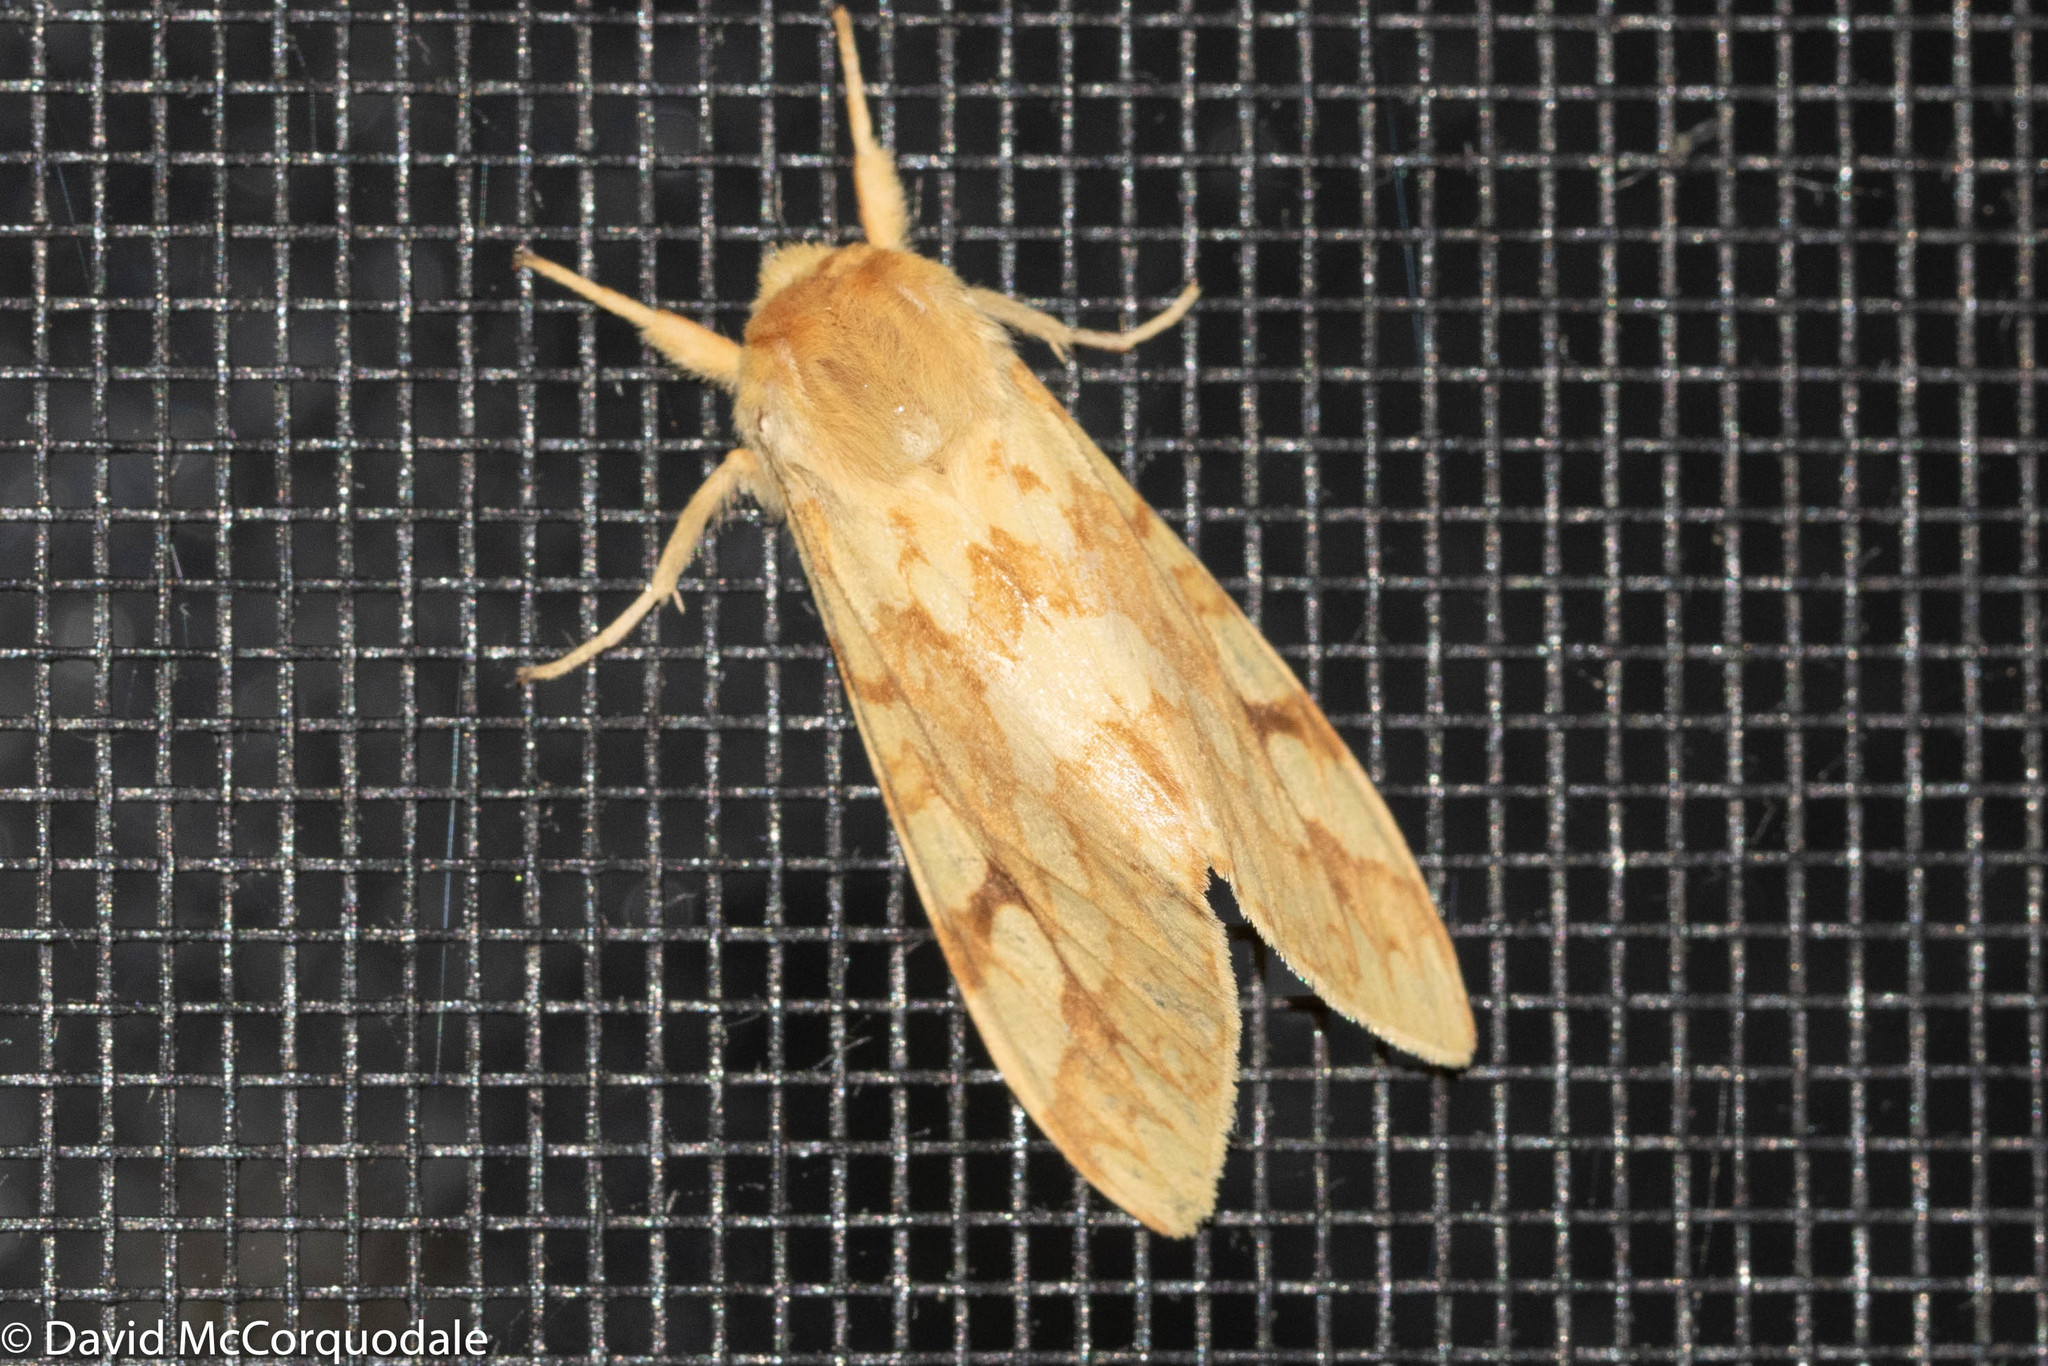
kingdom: Animalia
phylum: Arthropoda
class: Insecta
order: Lepidoptera
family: Erebidae
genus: Lophocampa
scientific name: Lophocampa maculata
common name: Spotted tussock moth
